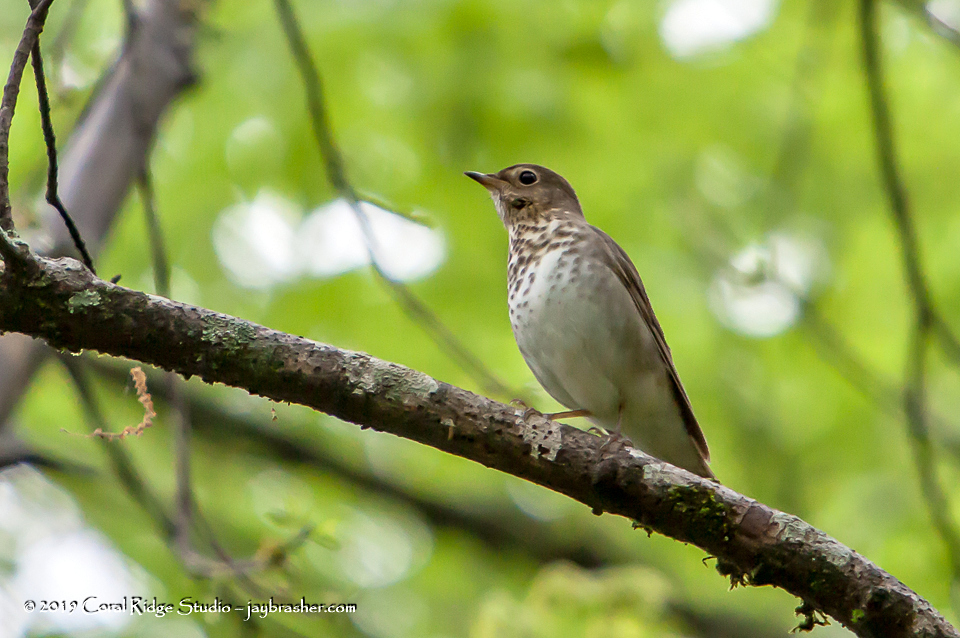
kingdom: Animalia
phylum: Chordata
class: Aves
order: Passeriformes
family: Turdidae
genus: Catharus
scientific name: Catharus ustulatus
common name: Swainson's thrush
